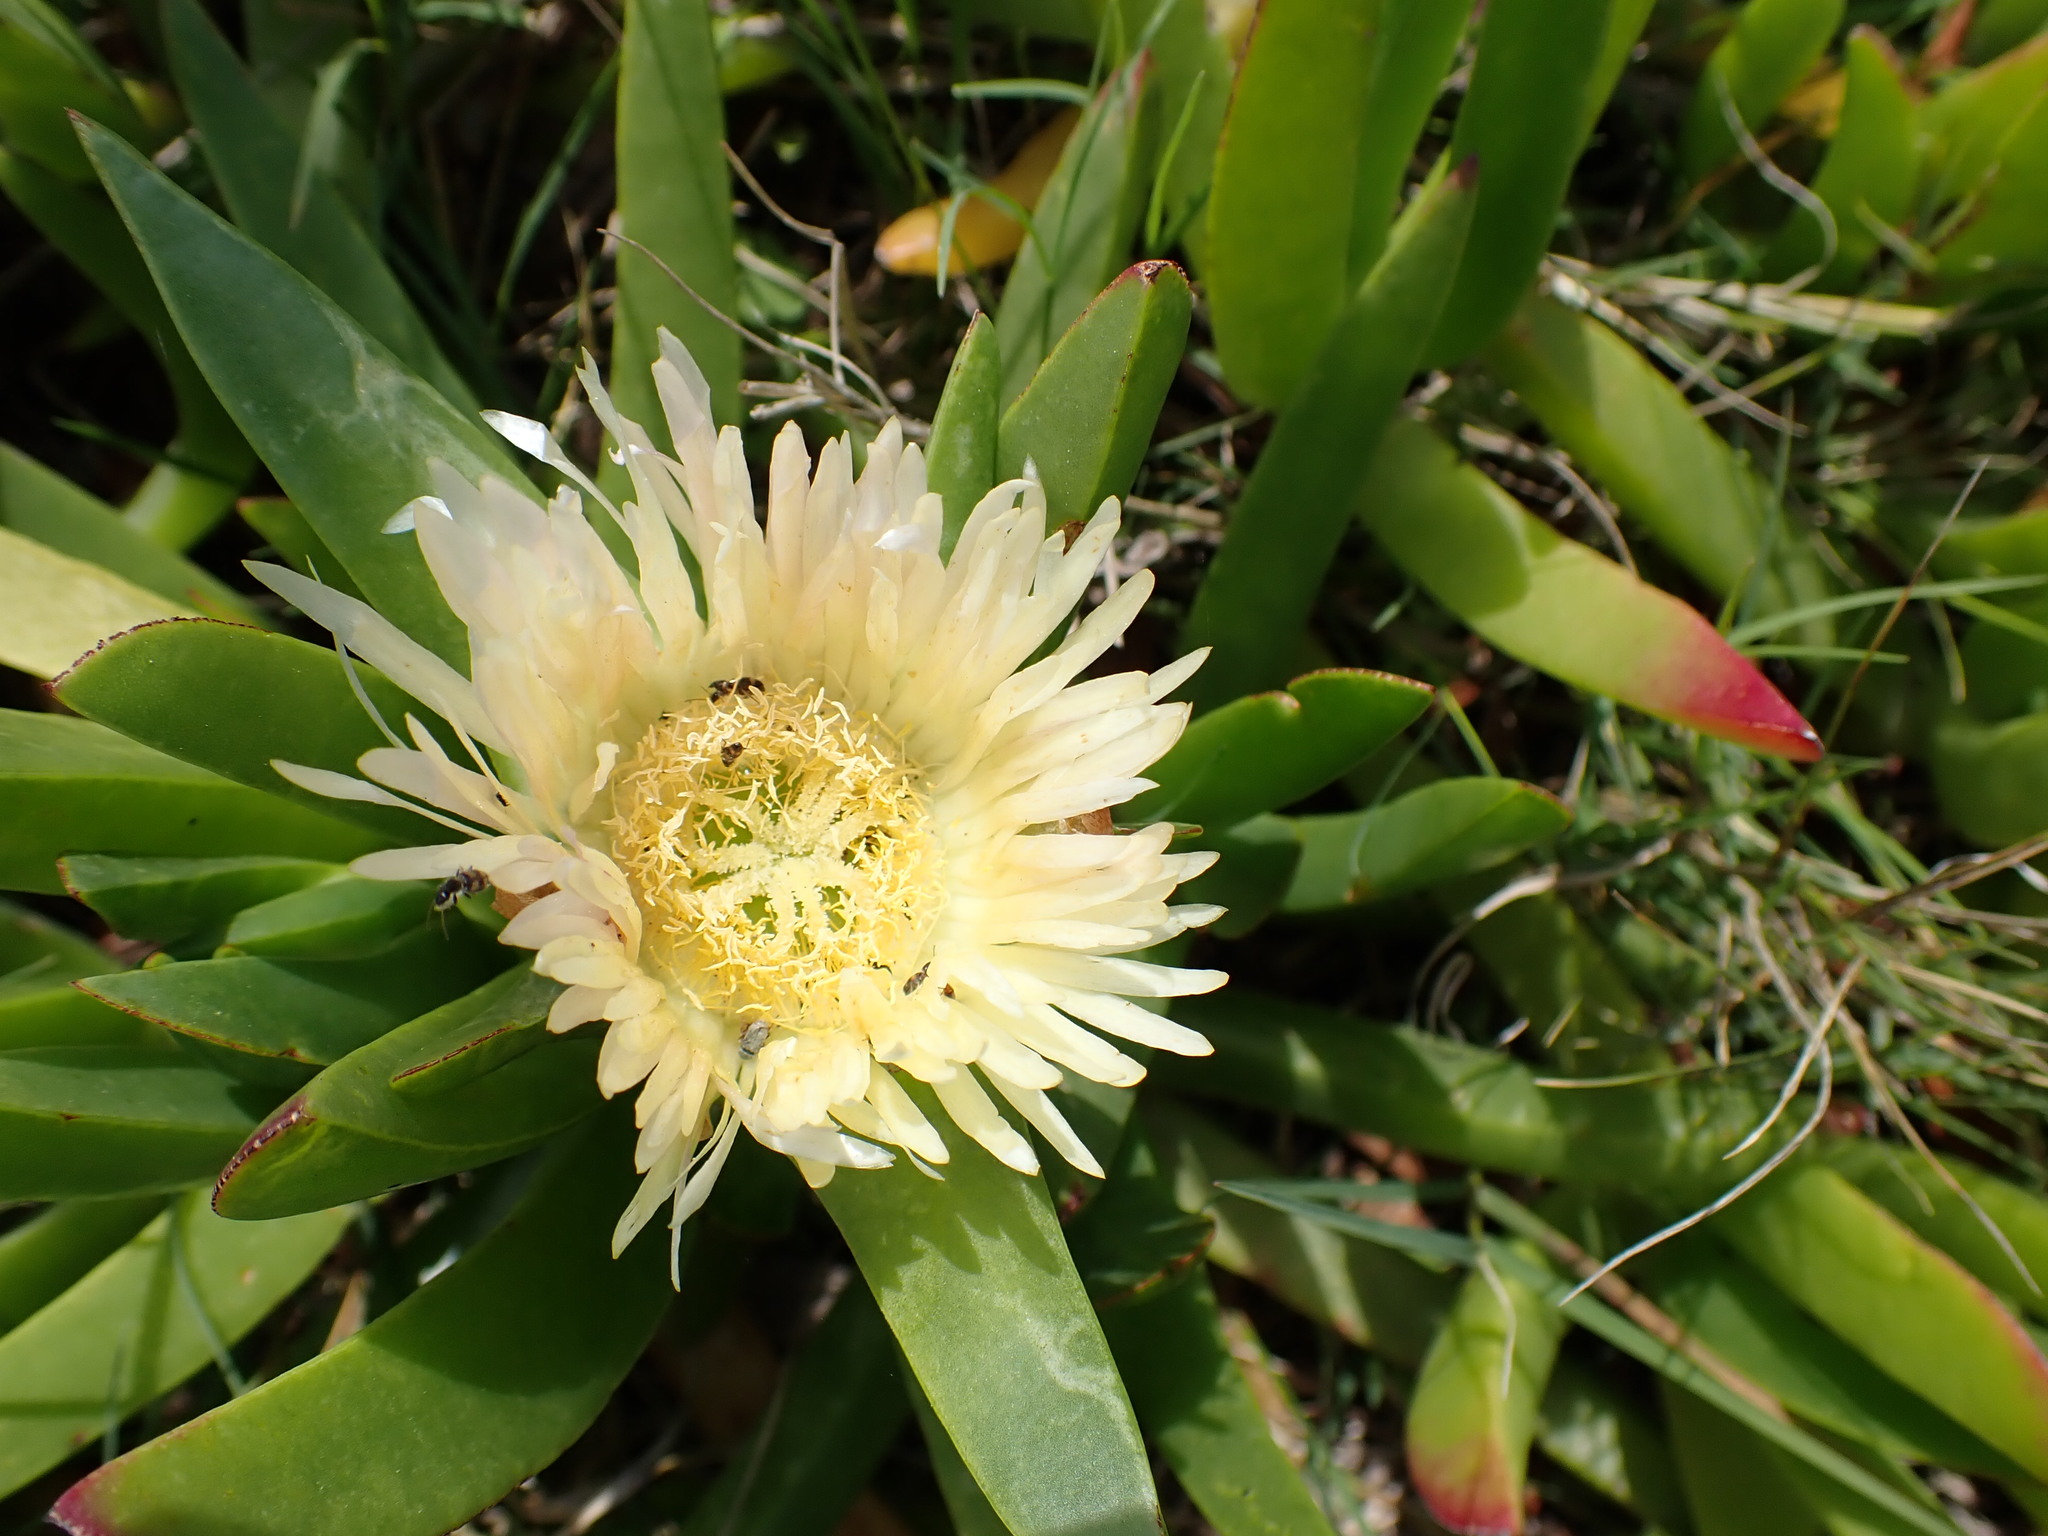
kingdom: Plantae
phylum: Tracheophyta
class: Magnoliopsida
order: Caryophyllales
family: Aizoaceae
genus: Carpobrotus
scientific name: Carpobrotus edulis
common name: Hottentot-fig
